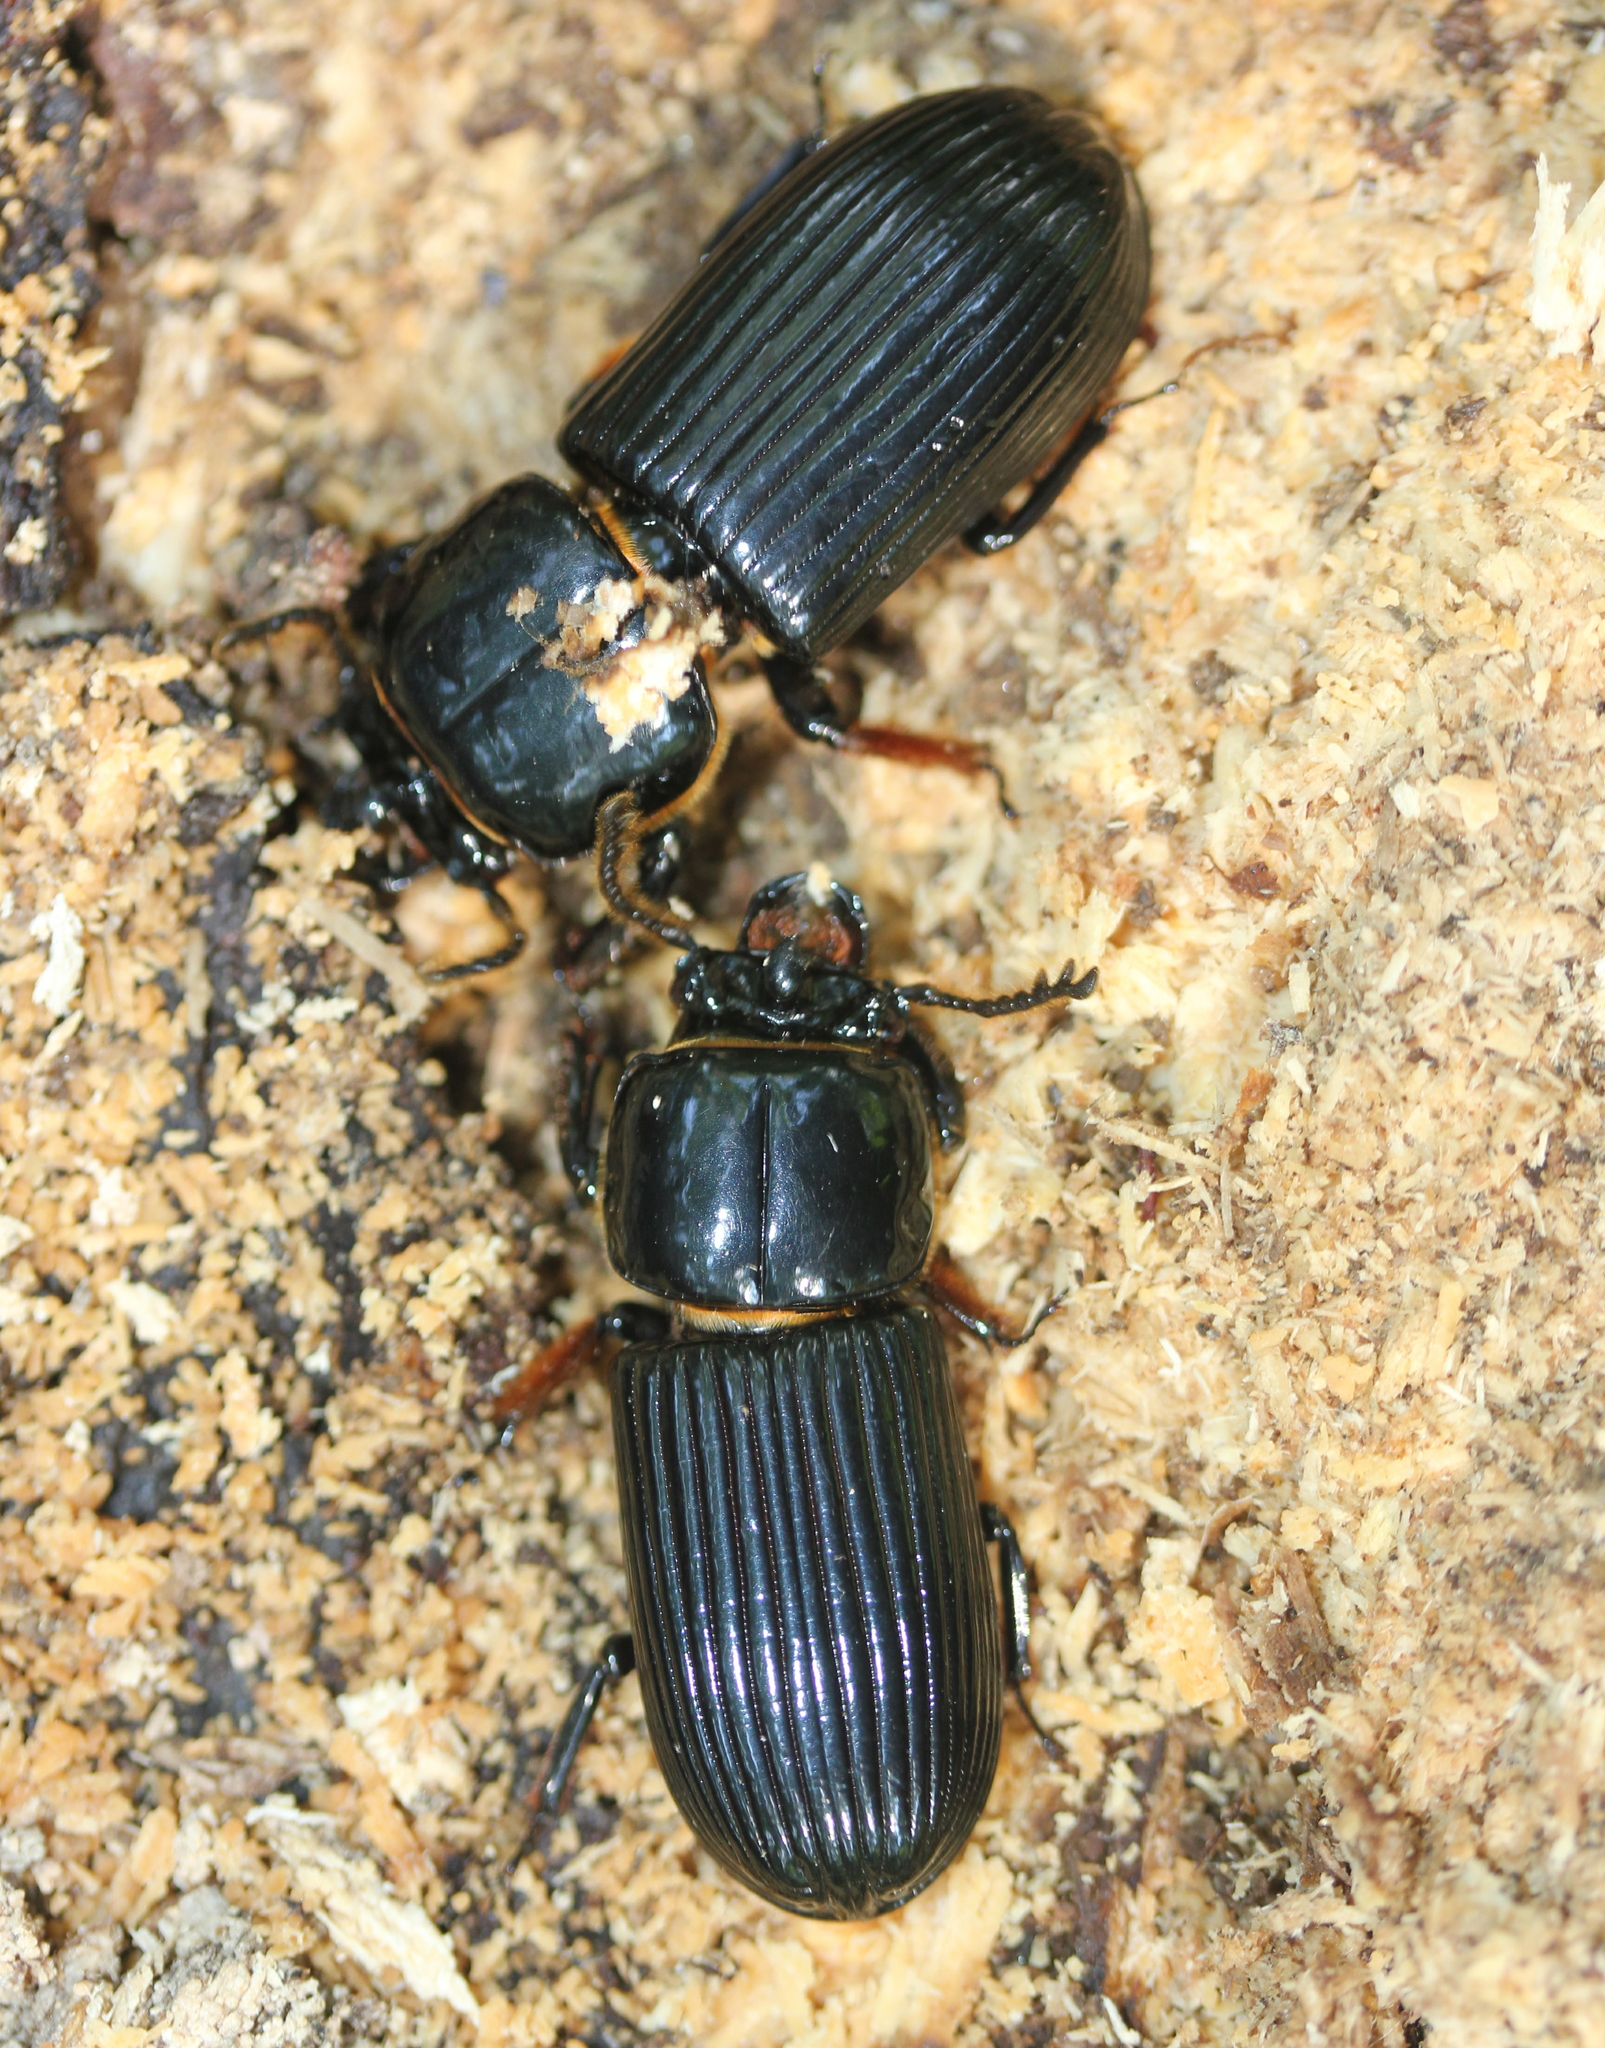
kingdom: Animalia
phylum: Arthropoda
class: Insecta
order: Coleoptera
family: Passalidae
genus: Odontotaenius
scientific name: Odontotaenius disjunctus
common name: Patent leather beetle
